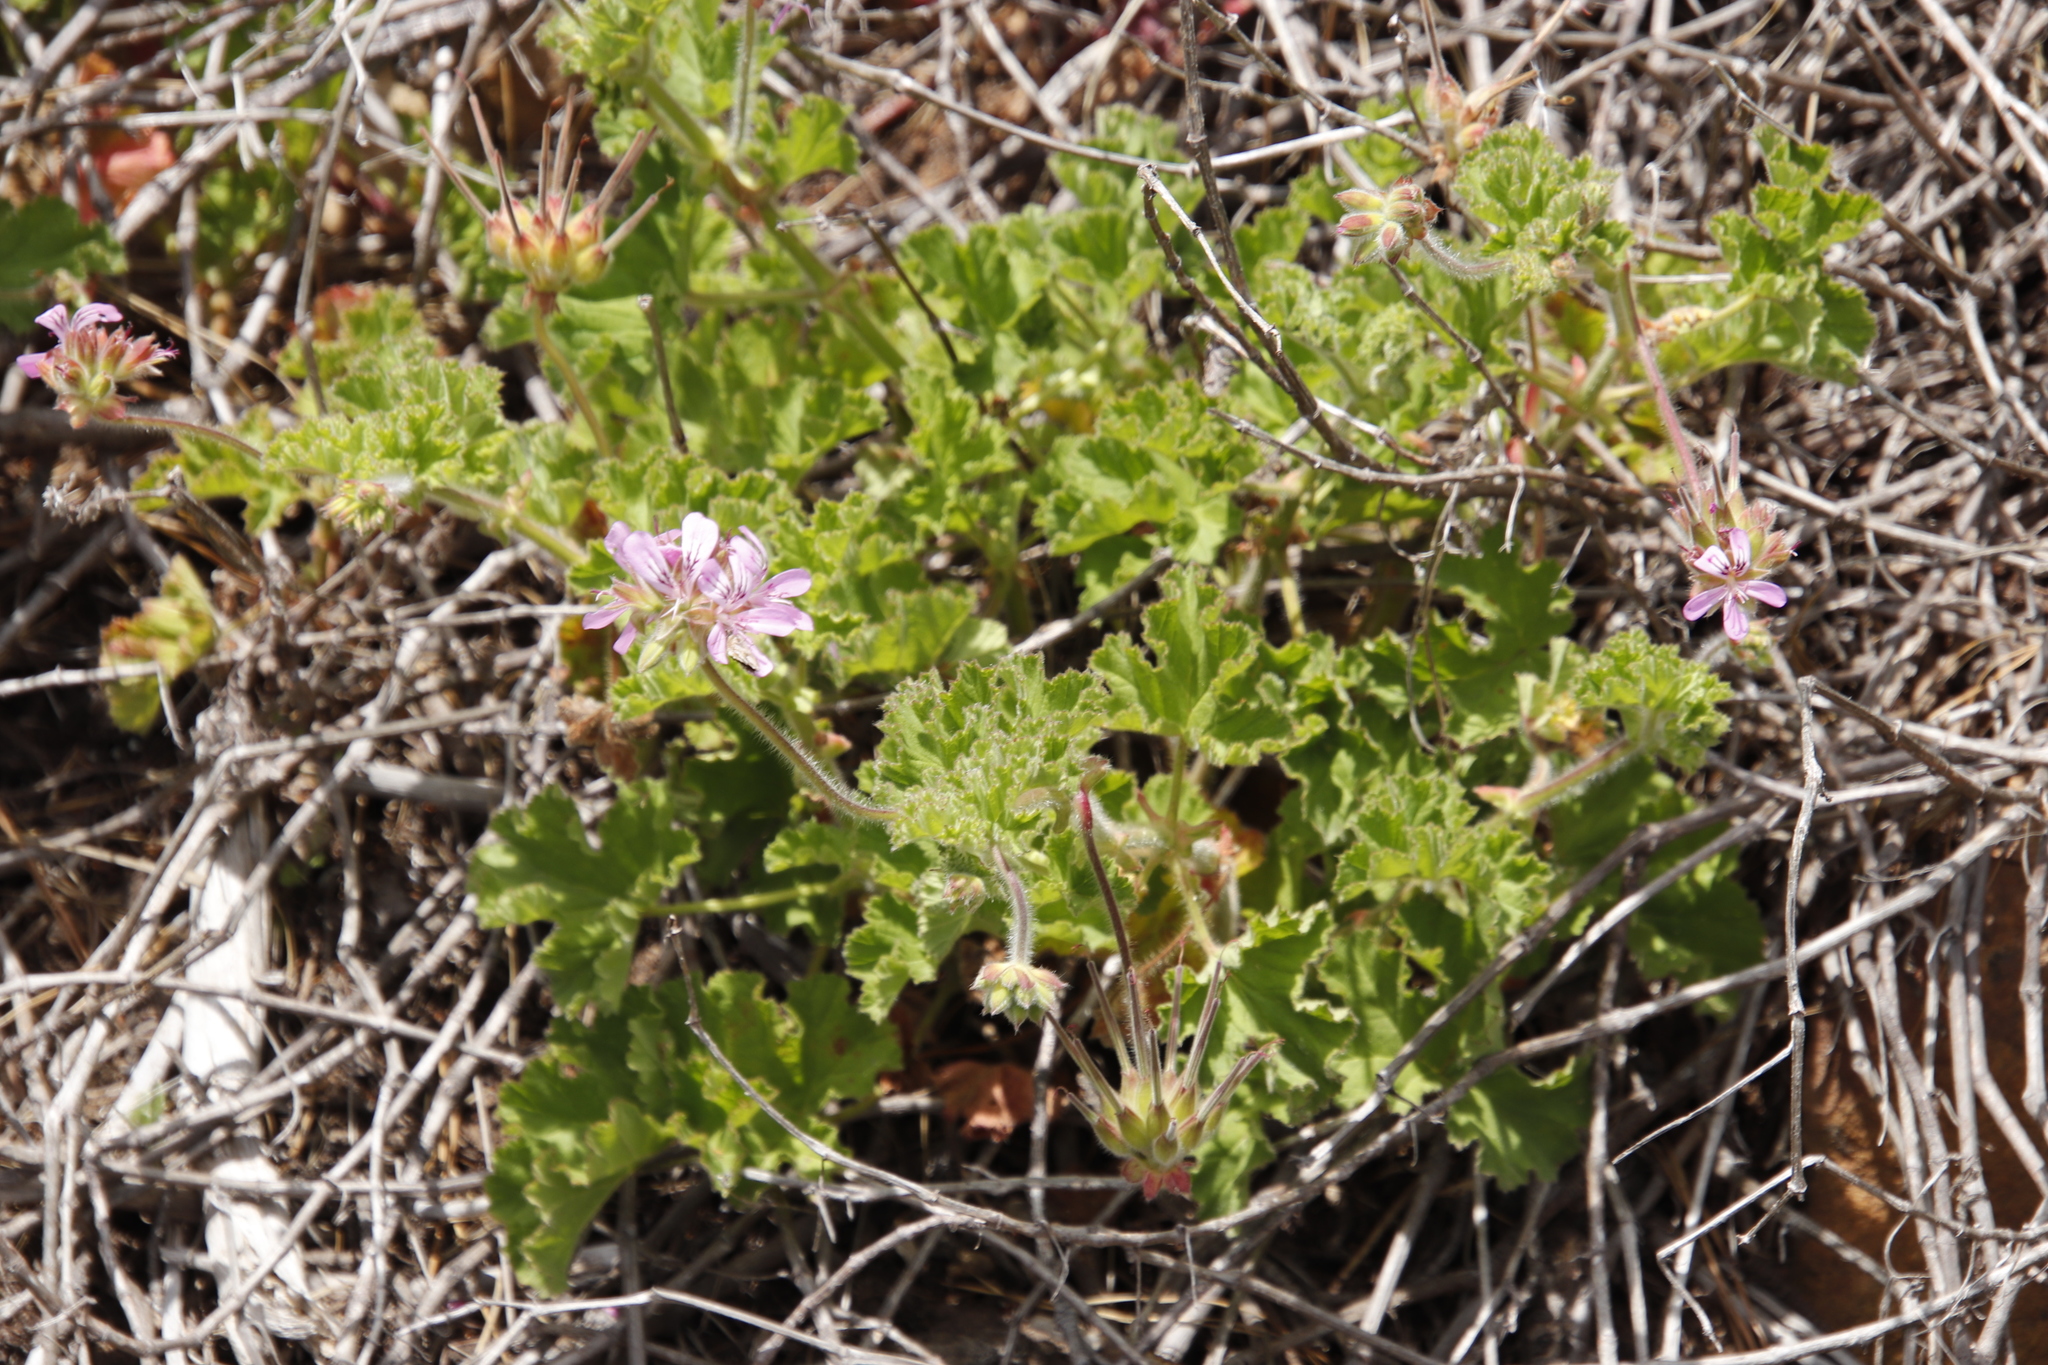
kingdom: Plantae
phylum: Tracheophyta
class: Magnoliopsida
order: Geraniales
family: Geraniaceae
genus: Pelargonium
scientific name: Pelargonium capitatum
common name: Rose scented geranium
